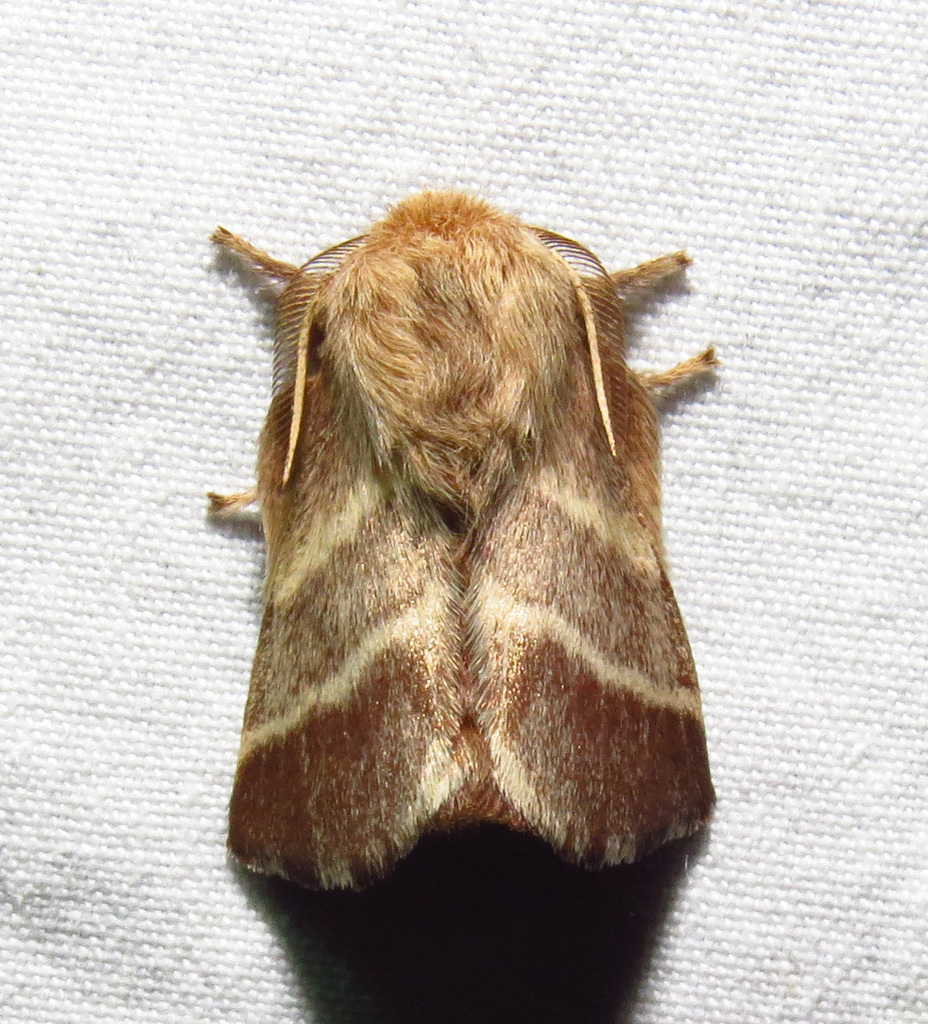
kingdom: Animalia
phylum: Arthropoda
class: Insecta
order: Lepidoptera
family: Lasiocampidae
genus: Malacosoma
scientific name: Malacosoma americana
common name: Eastern tent caterpillar moth
